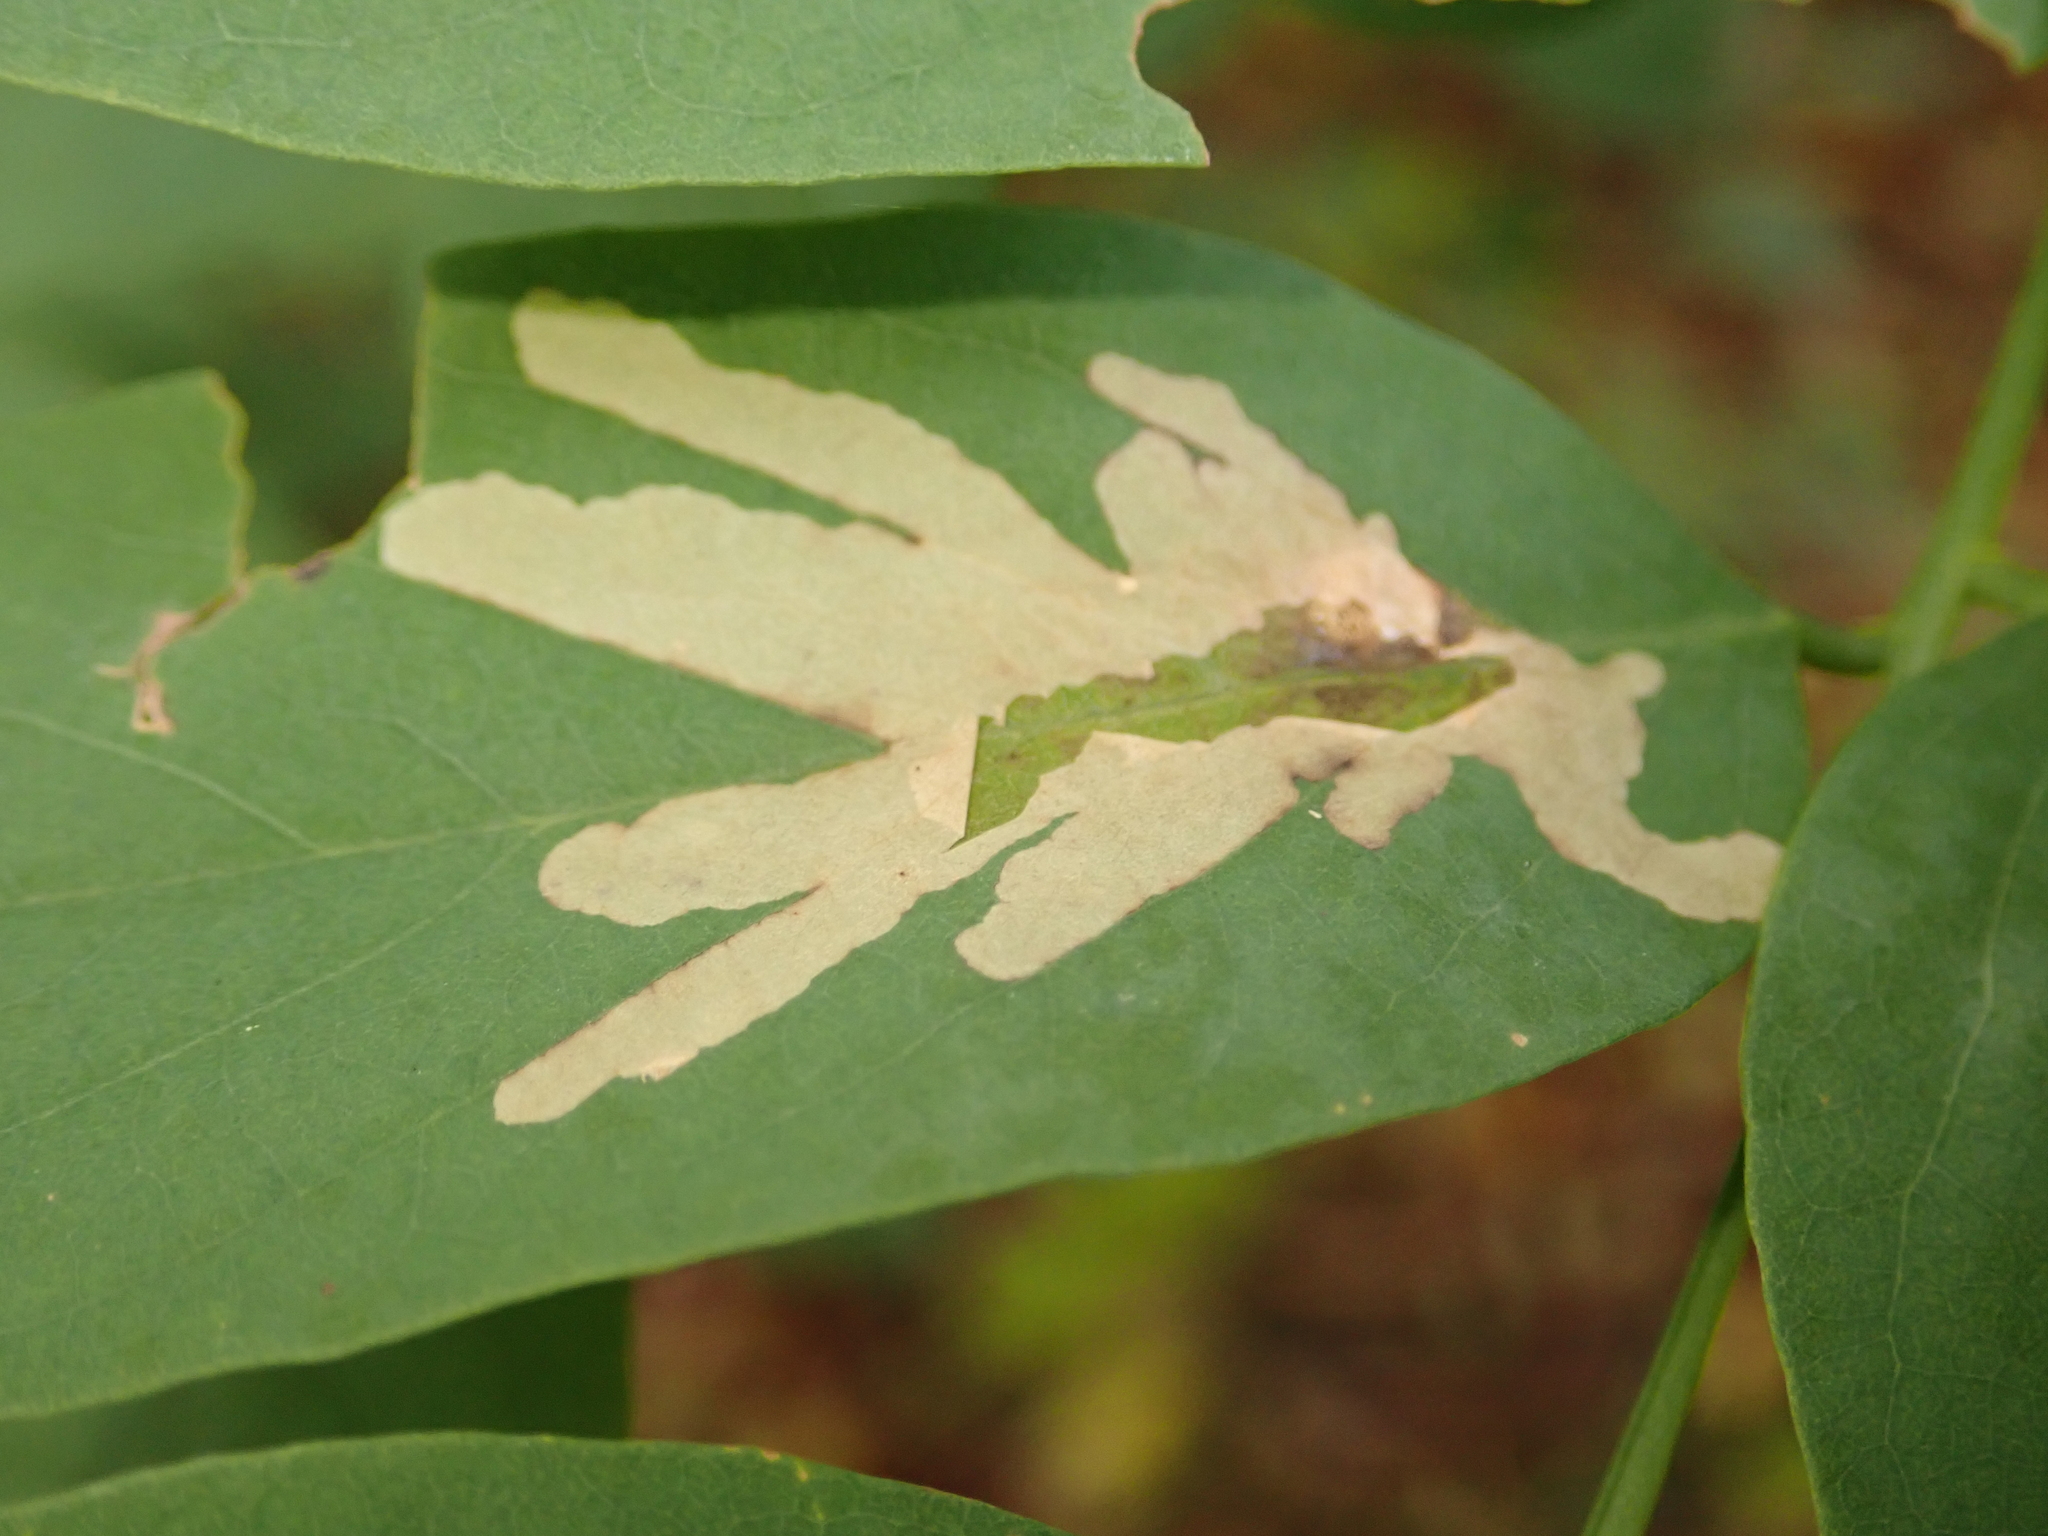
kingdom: Animalia
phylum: Arthropoda
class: Insecta
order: Lepidoptera
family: Gracillariidae
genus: Parectopa
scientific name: Parectopa robiniella
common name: Locust digitate leafminer
